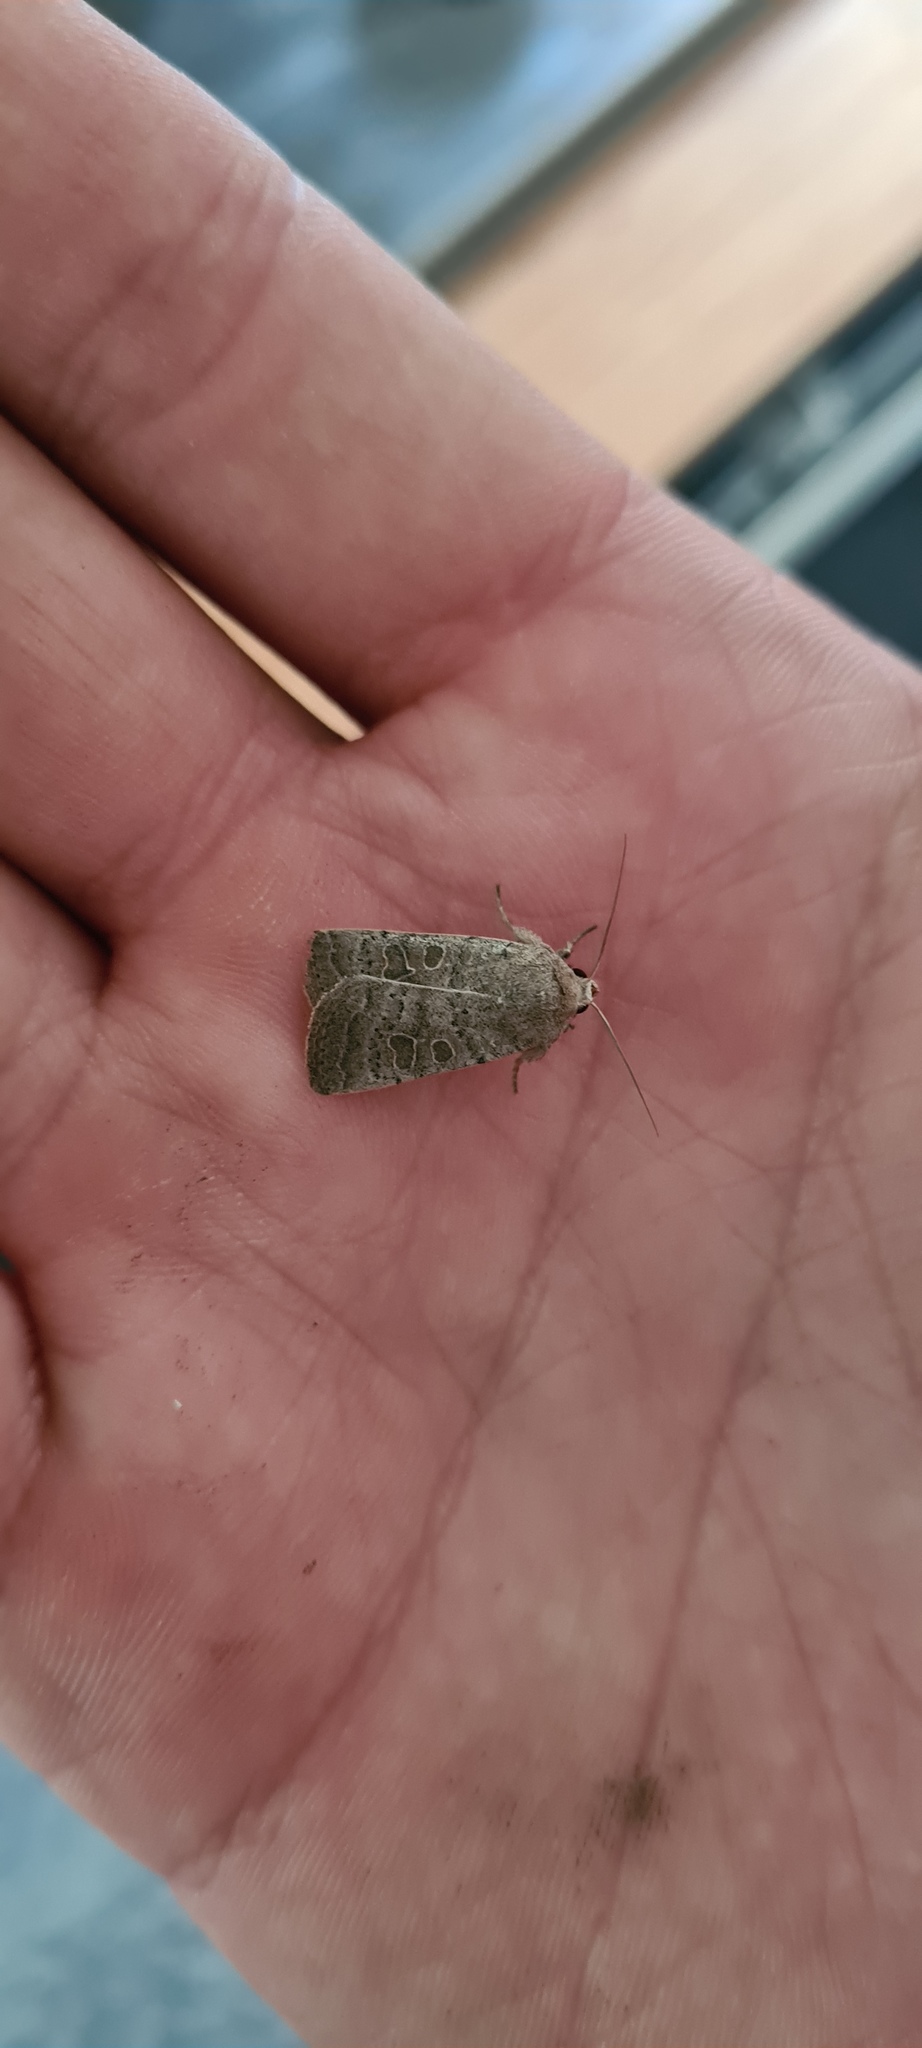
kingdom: Animalia
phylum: Arthropoda
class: Insecta
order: Lepidoptera
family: Noctuidae
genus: Hoplodrina
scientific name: Hoplodrina ambigua
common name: Vine's rustic
